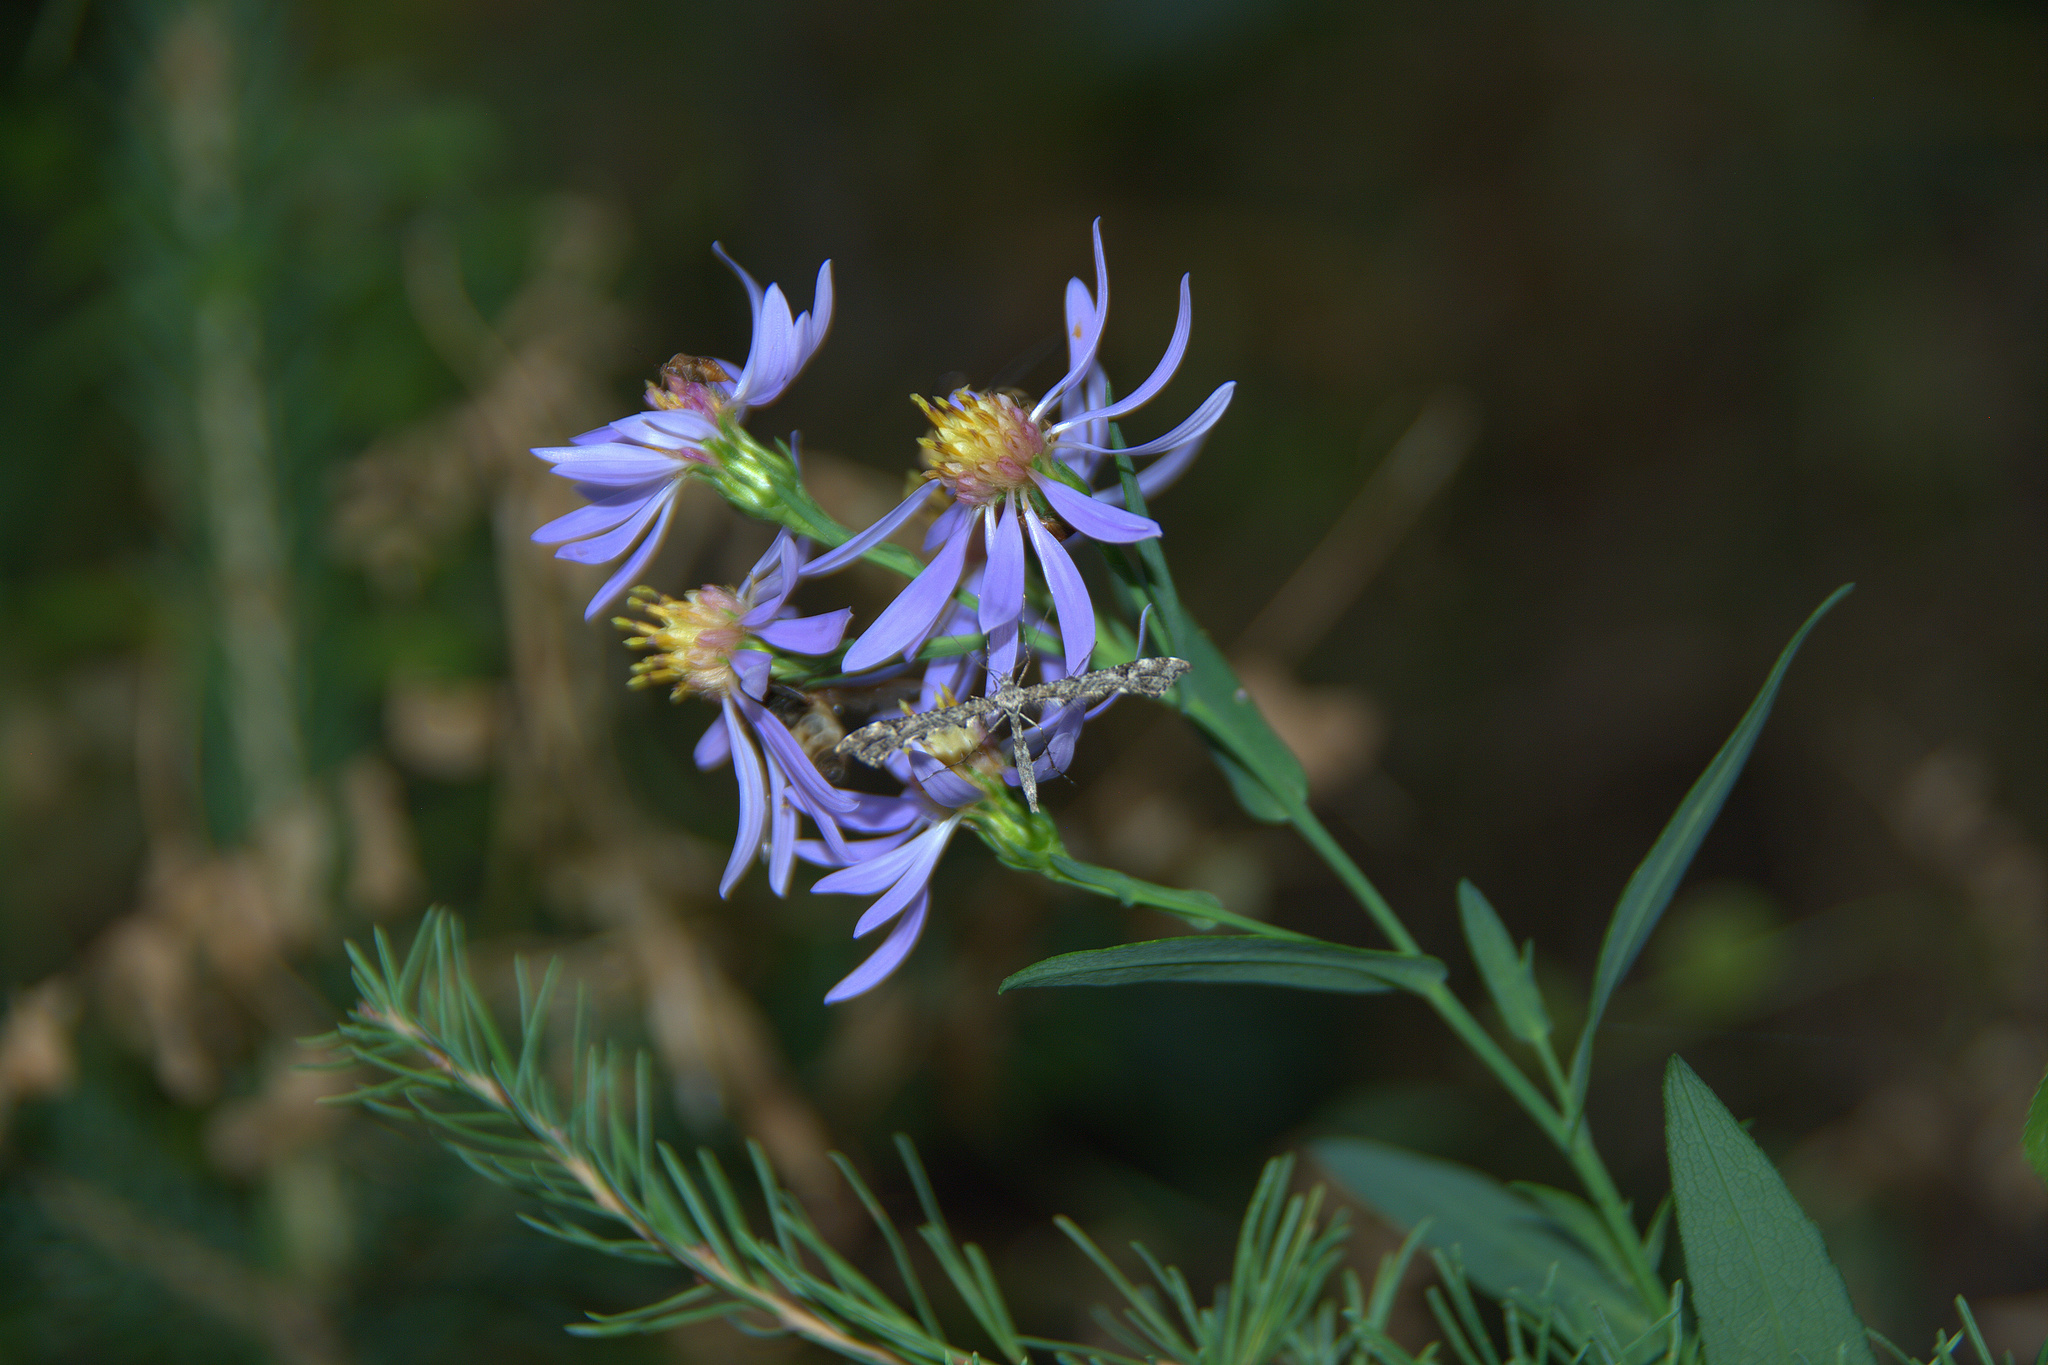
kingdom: Animalia
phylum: Arthropoda
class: Insecta
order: Lepidoptera
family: Pterophoridae
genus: Amblyptilia
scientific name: Amblyptilia pica
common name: Geranium plume moth
